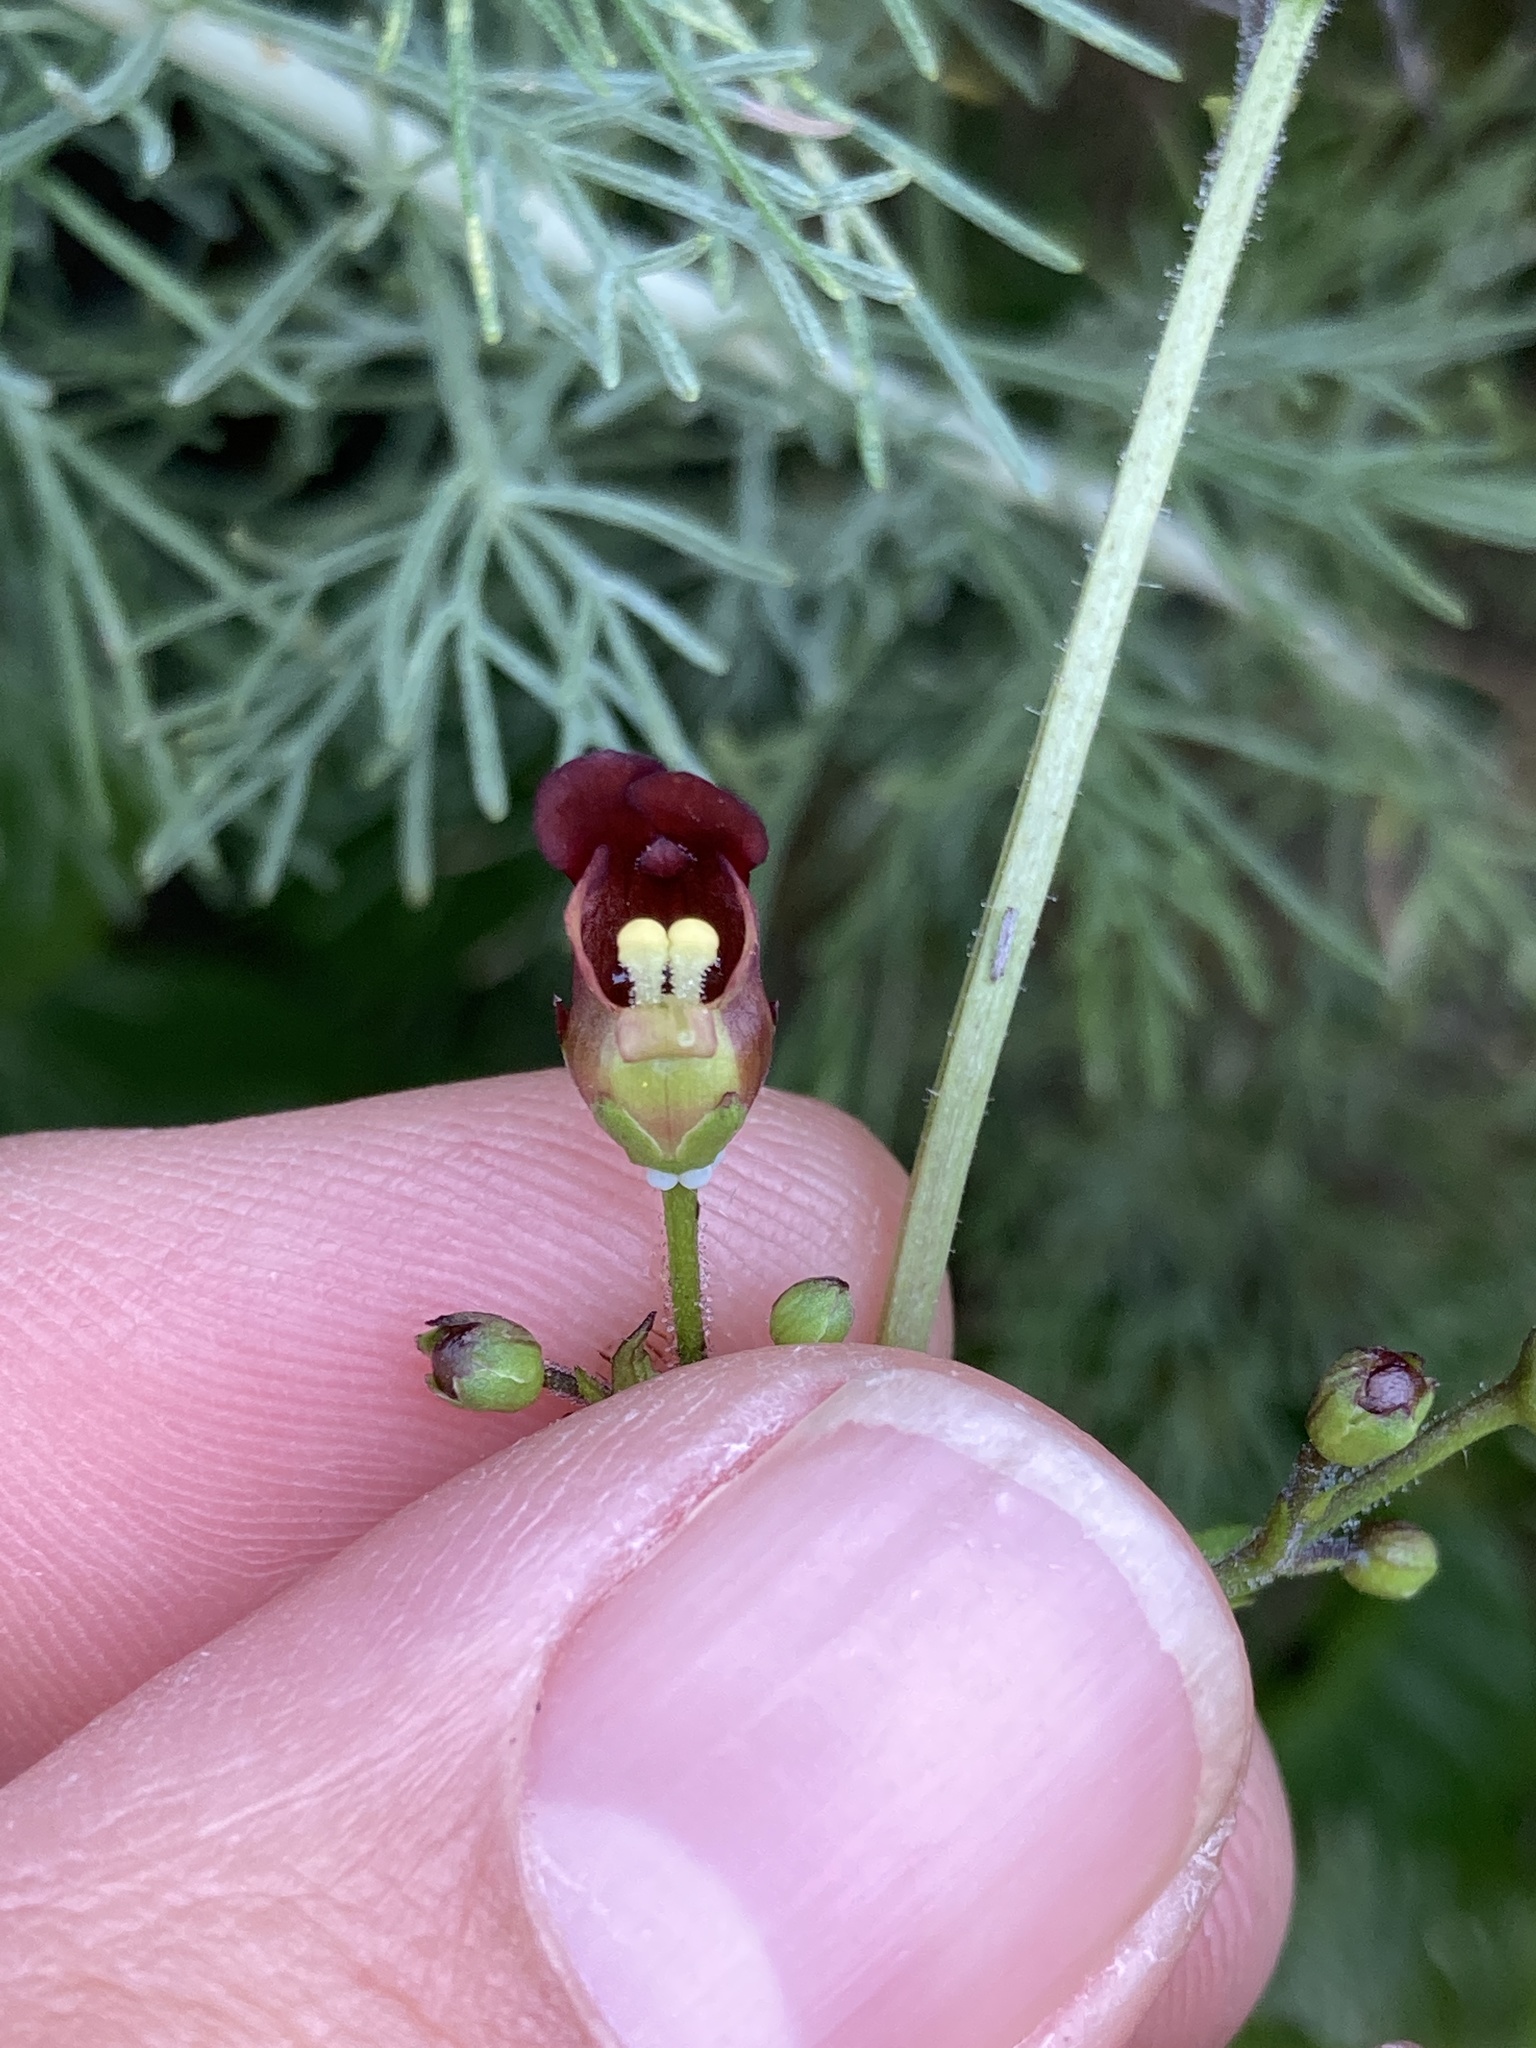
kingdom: Plantae
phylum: Tracheophyta
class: Magnoliopsida
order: Lamiales
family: Scrophulariaceae
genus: Scrophularia
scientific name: Scrophularia californica
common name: California figwort
